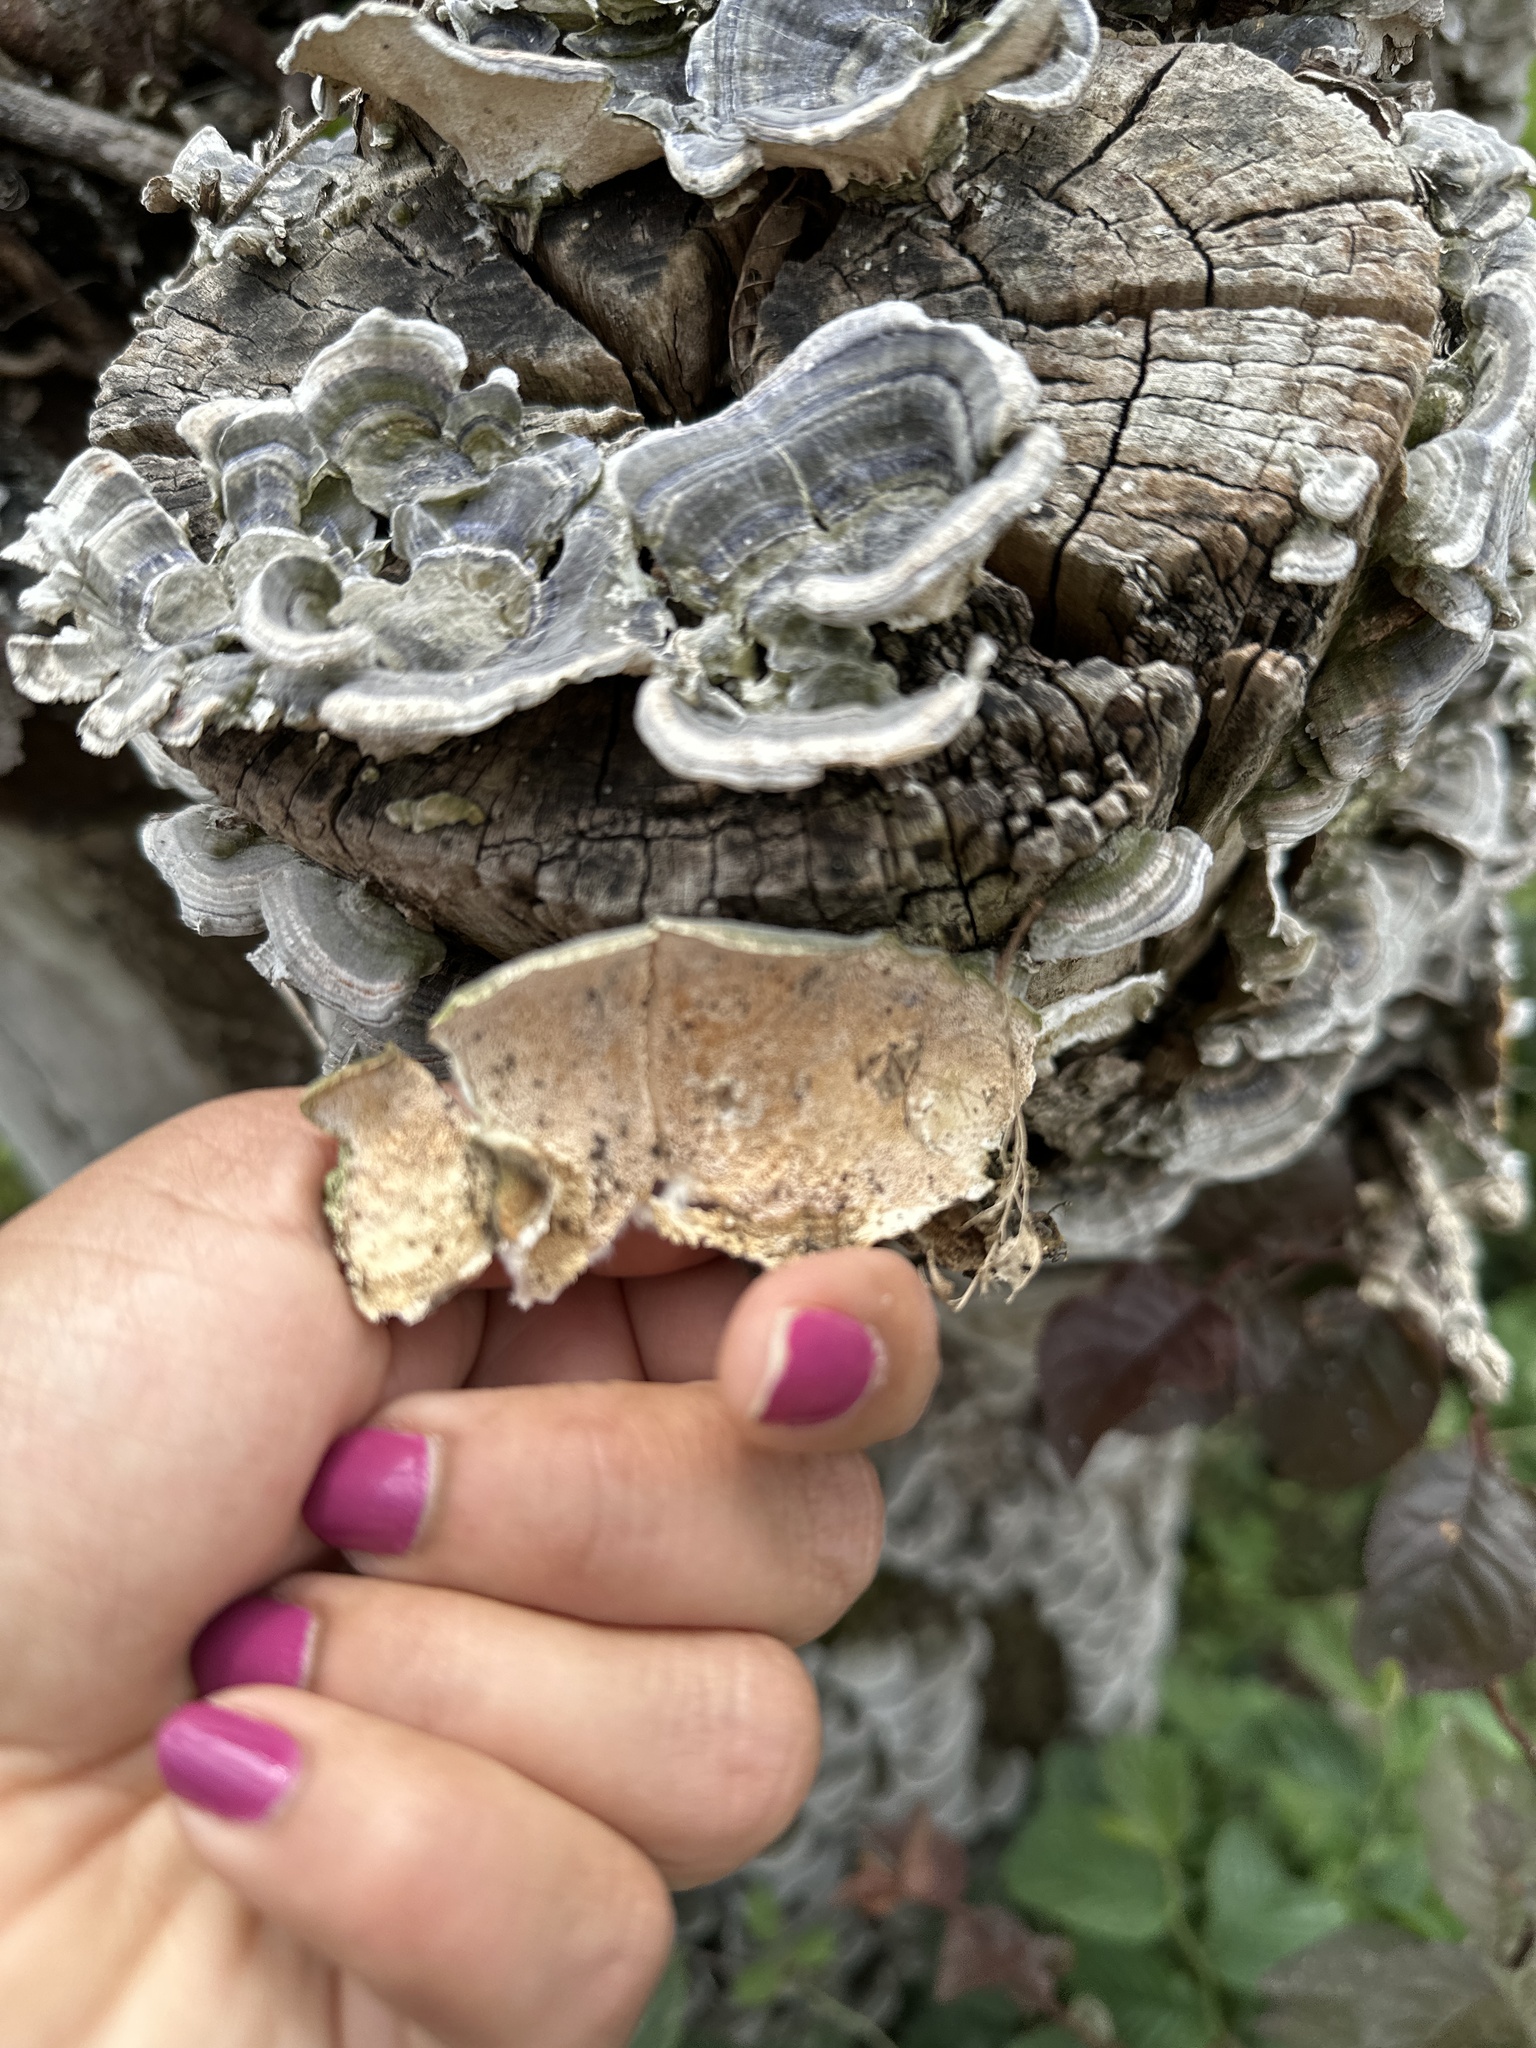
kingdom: Fungi
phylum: Basidiomycota
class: Agaricomycetes
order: Polyporales
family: Polyporaceae
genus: Trametes
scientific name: Trametes versicolor
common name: Turkeytail
